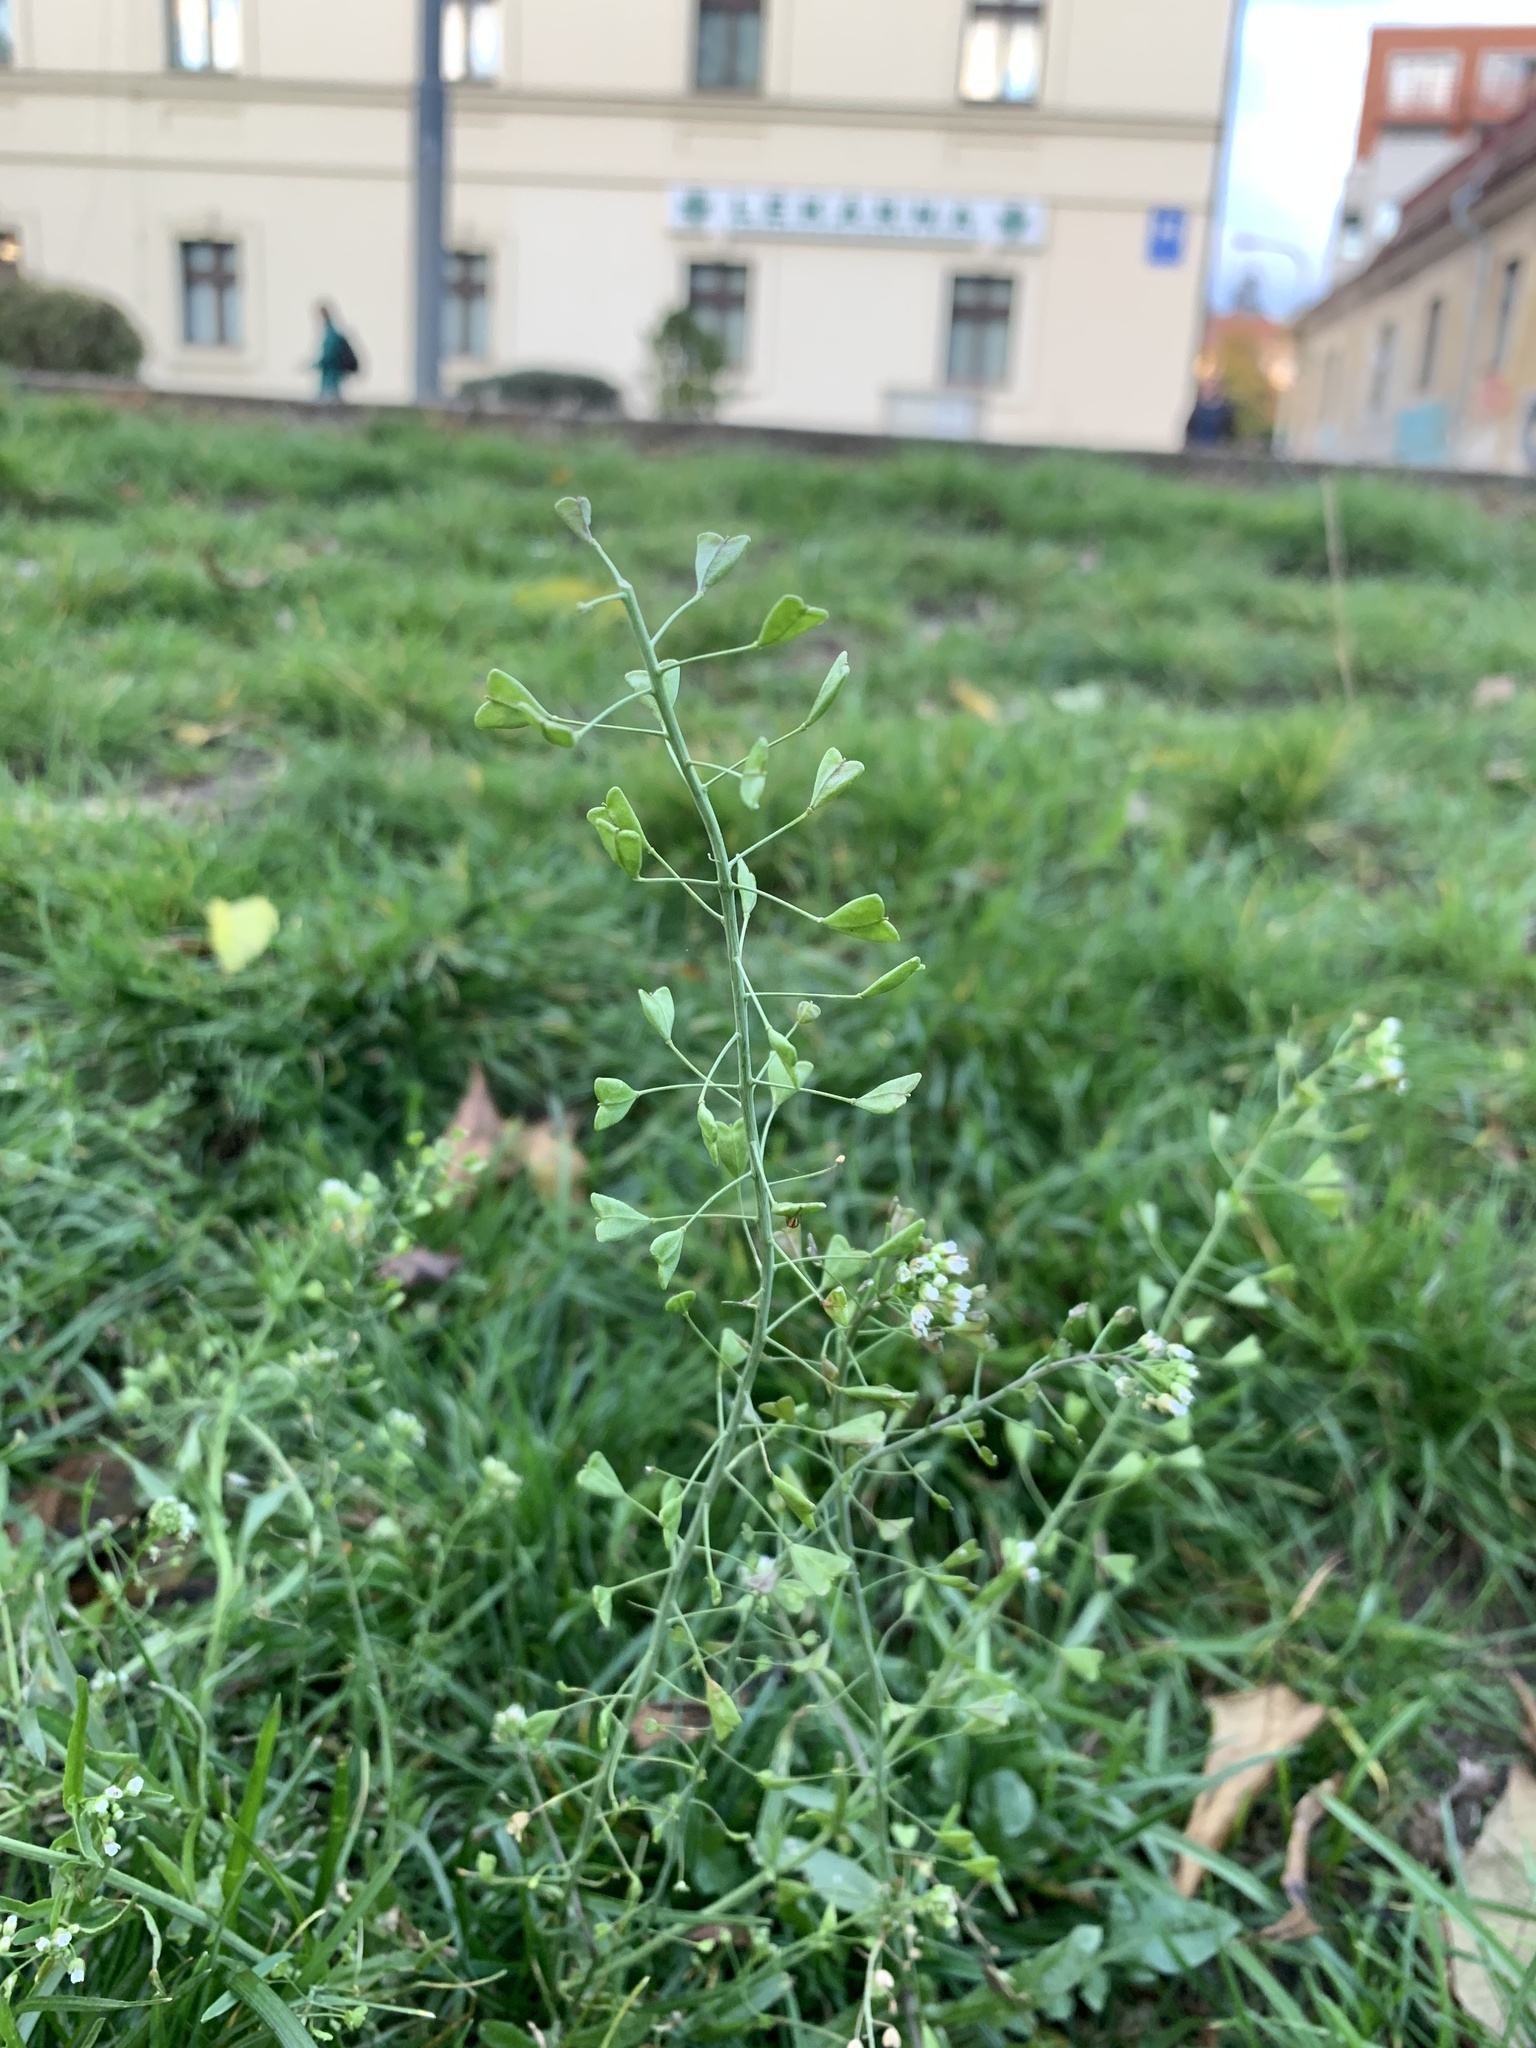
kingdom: Plantae
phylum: Tracheophyta
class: Magnoliopsida
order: Brassicales
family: Brassicaceae
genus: Capsella
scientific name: Capsella bursa-pastoris
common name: Shepherd's purse
